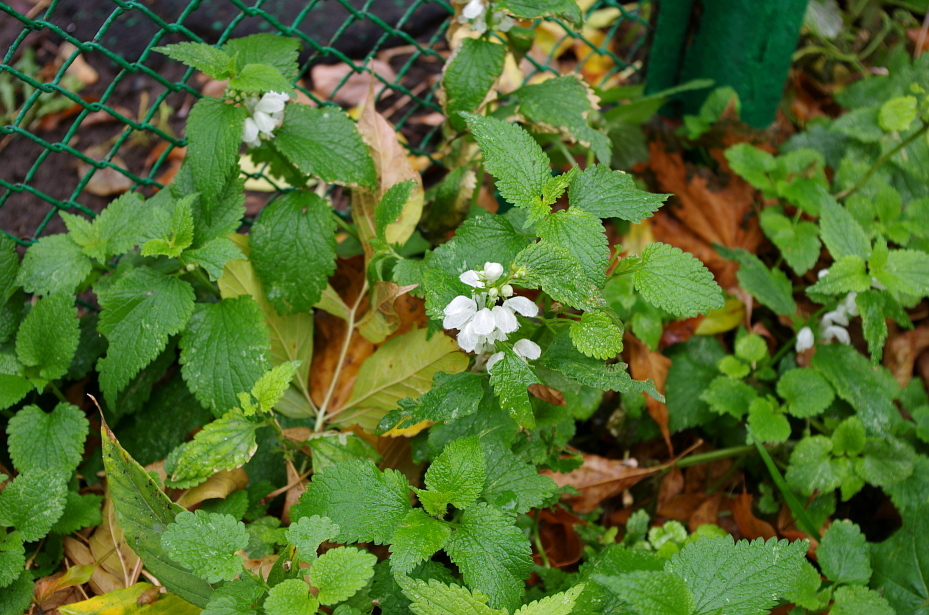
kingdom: Plantae
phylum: Tracheophyta
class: Magnoliopsida
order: Lamiales
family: Lamiaceae
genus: Lamium
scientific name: Lamium album
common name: White dead-nettle
